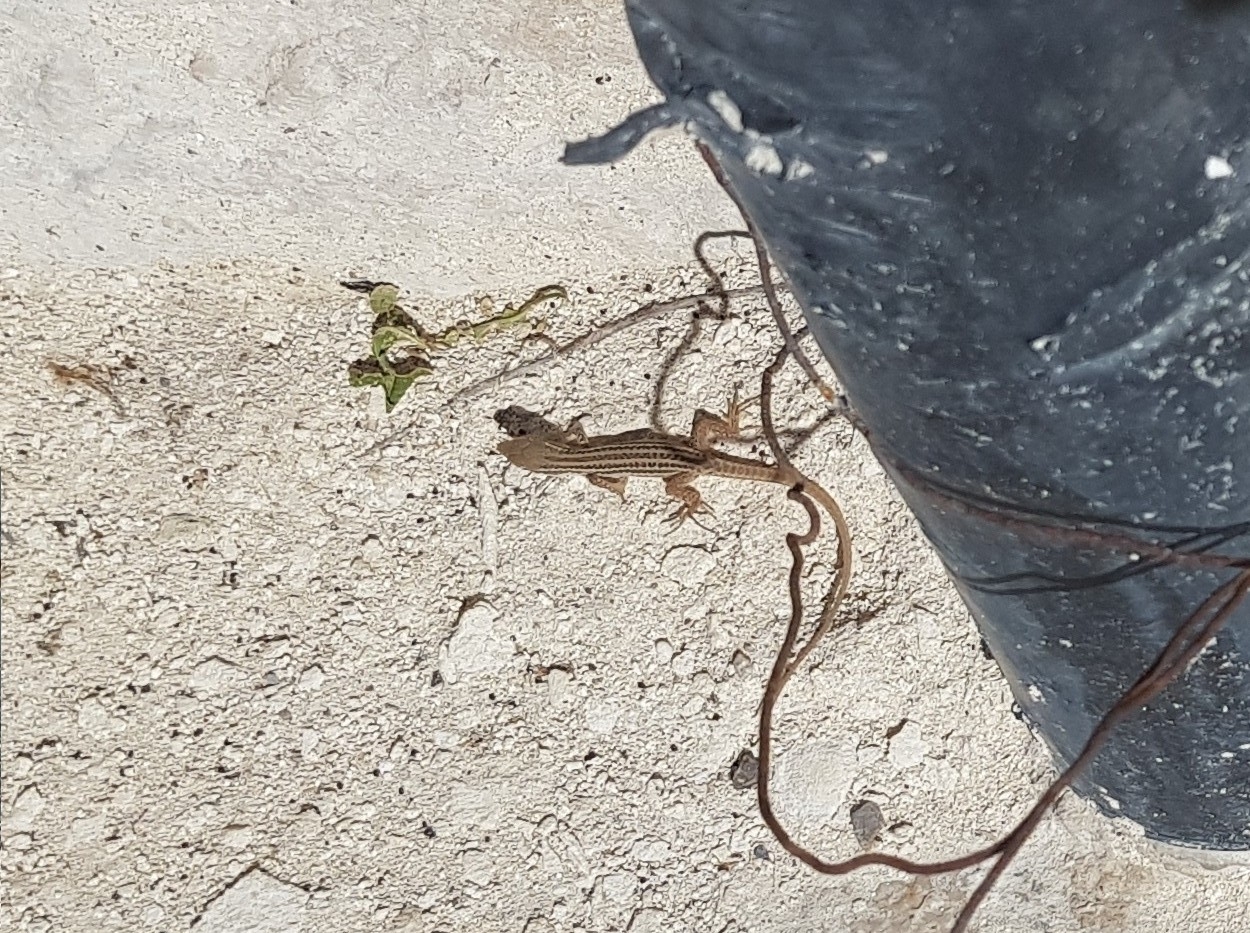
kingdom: Animalia
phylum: Chordata
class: Squamata
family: Lacertidae
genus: Podarcis
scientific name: Podarcis siculus
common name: Italian wall lizard
